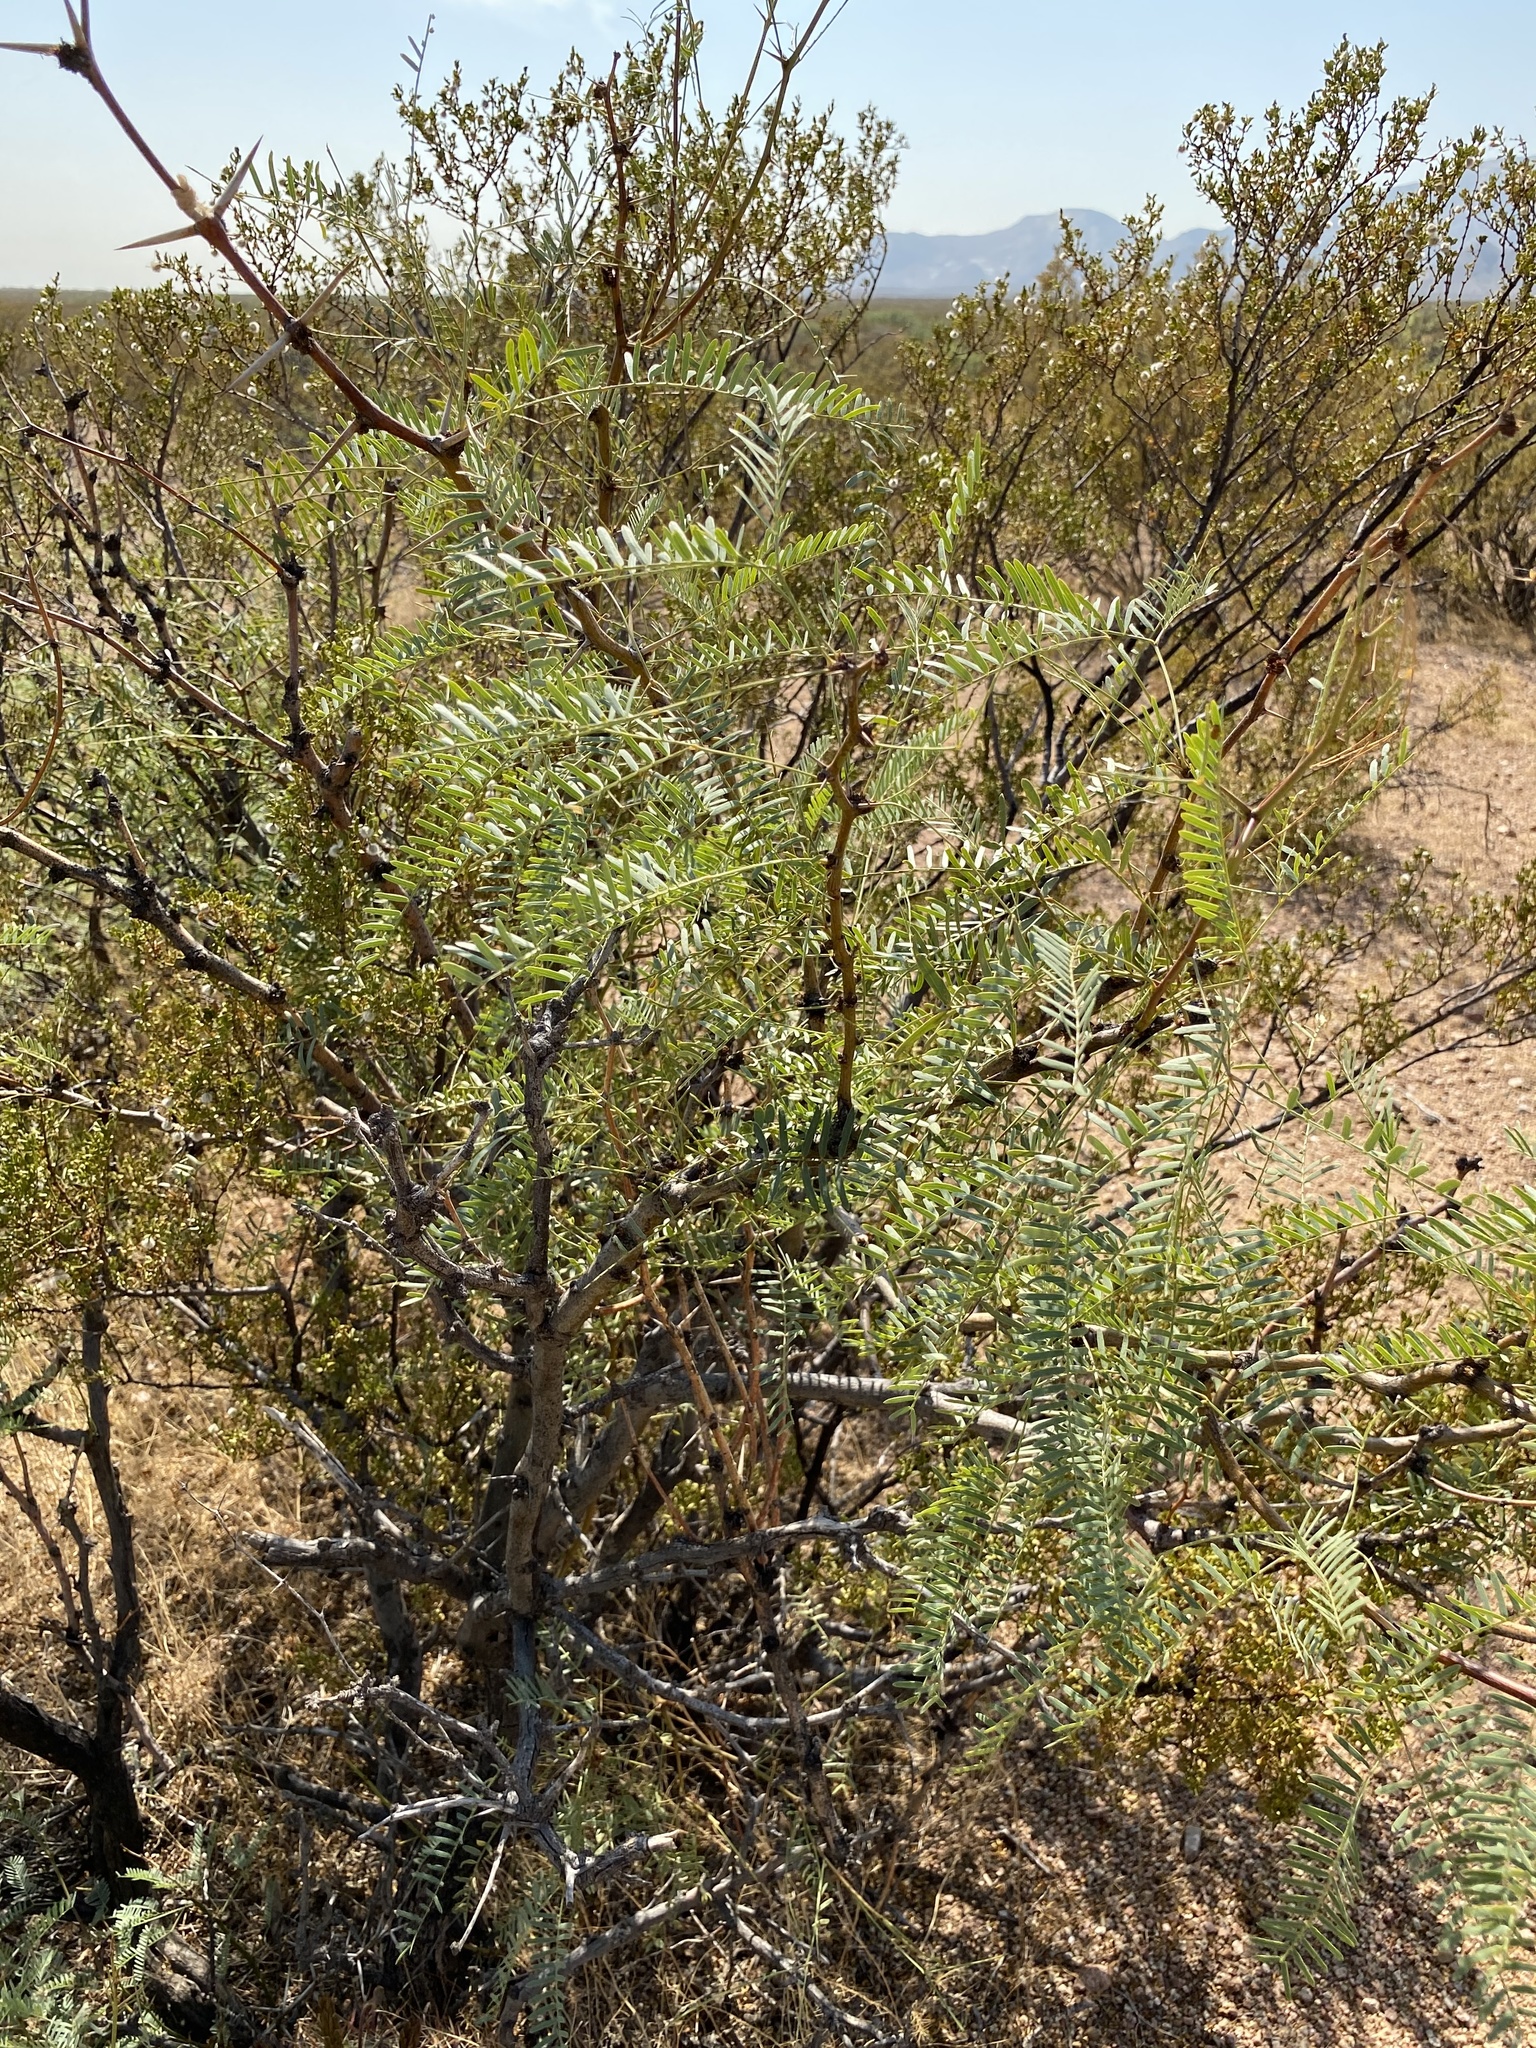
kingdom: Plantae
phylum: Tracheophyta
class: Magnoliopsida
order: Fabales
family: Fabaceae
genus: Prosopis
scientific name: Prosopis glandulosa
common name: Honey mesquite
